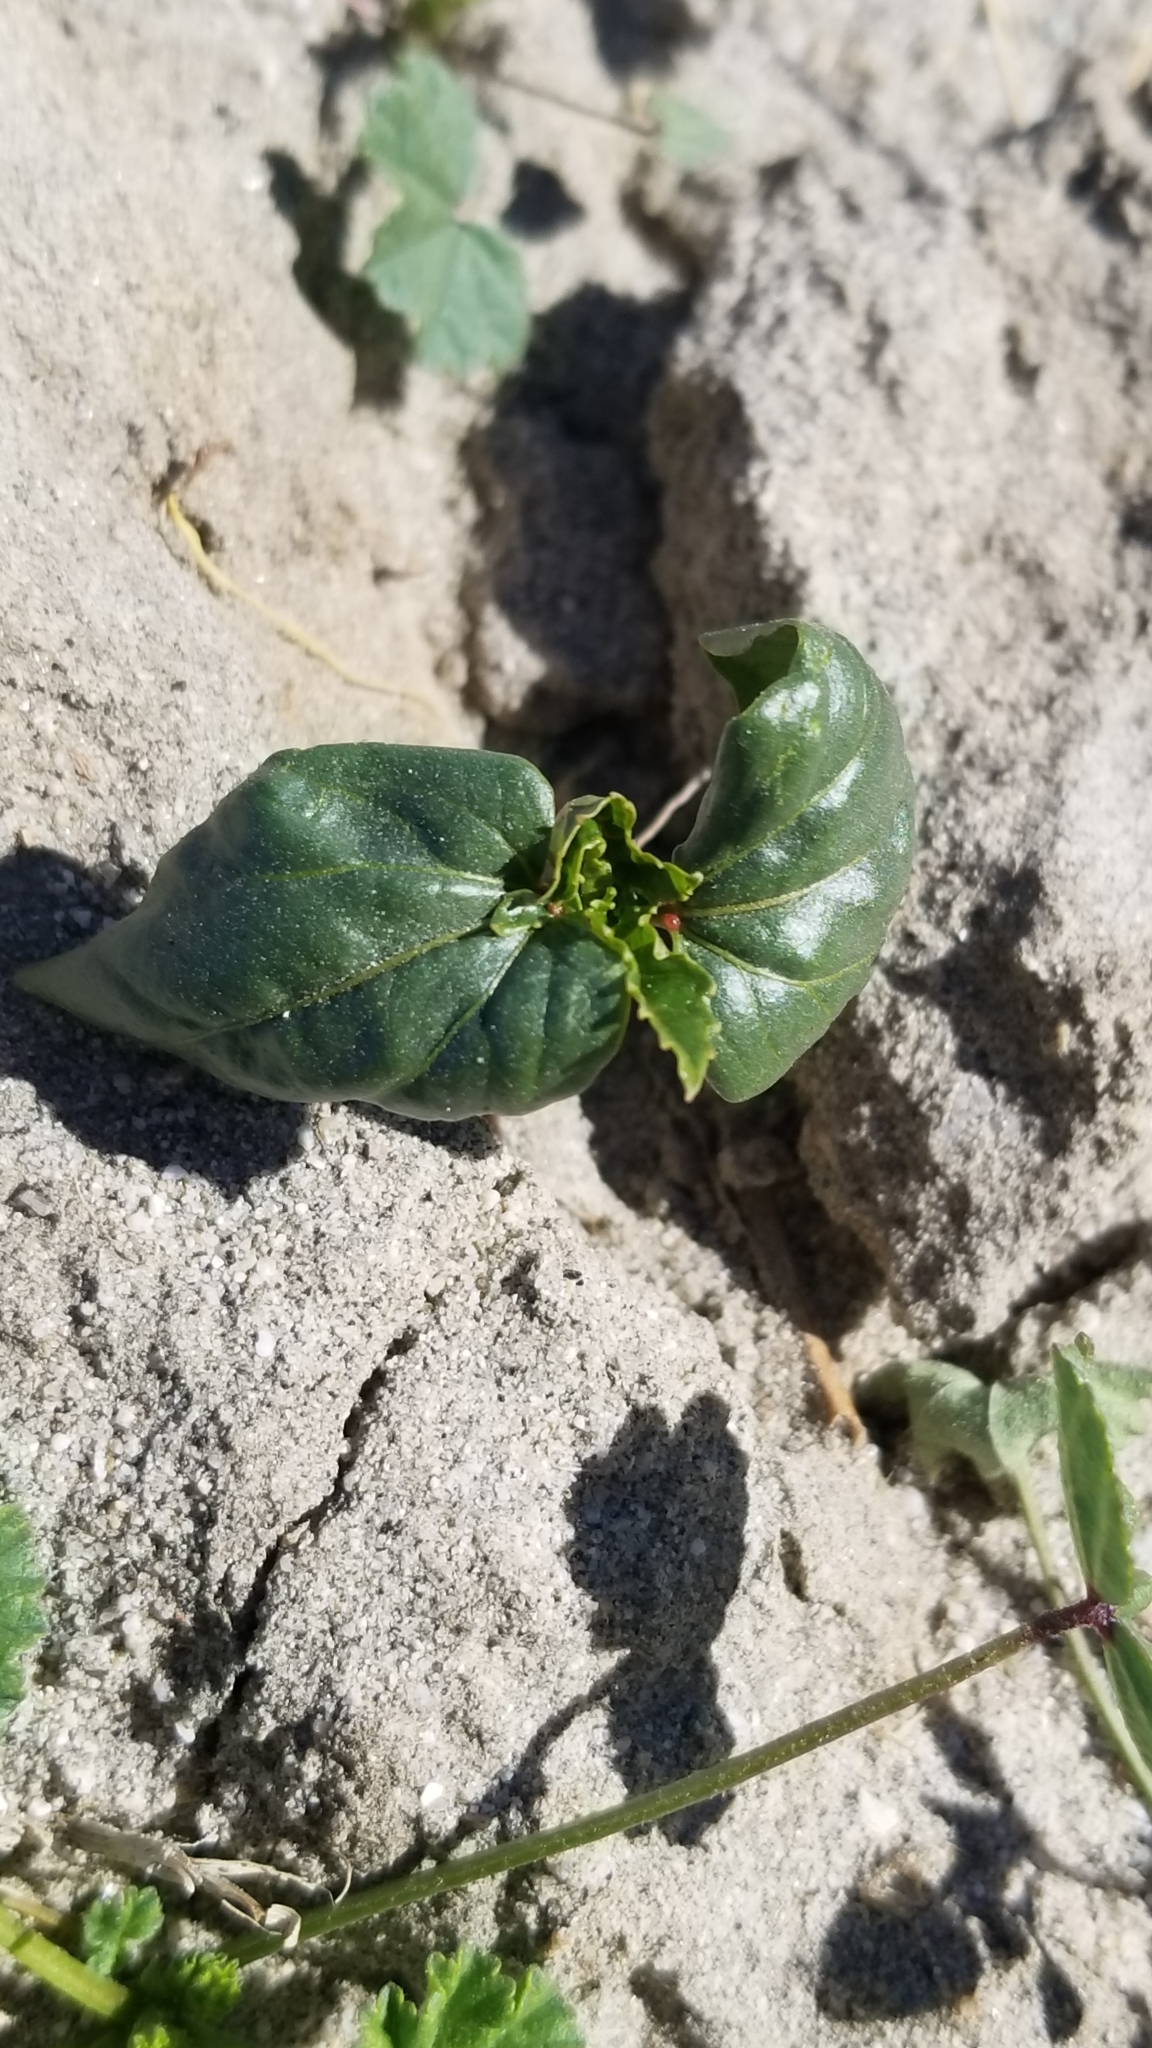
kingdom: Plantae
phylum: Tracheophyta
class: Magnoliopsida
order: Malpighiales
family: Euphorbiaceae
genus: Ricinus
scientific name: Ricinus communis
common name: Castor-oil-plant
